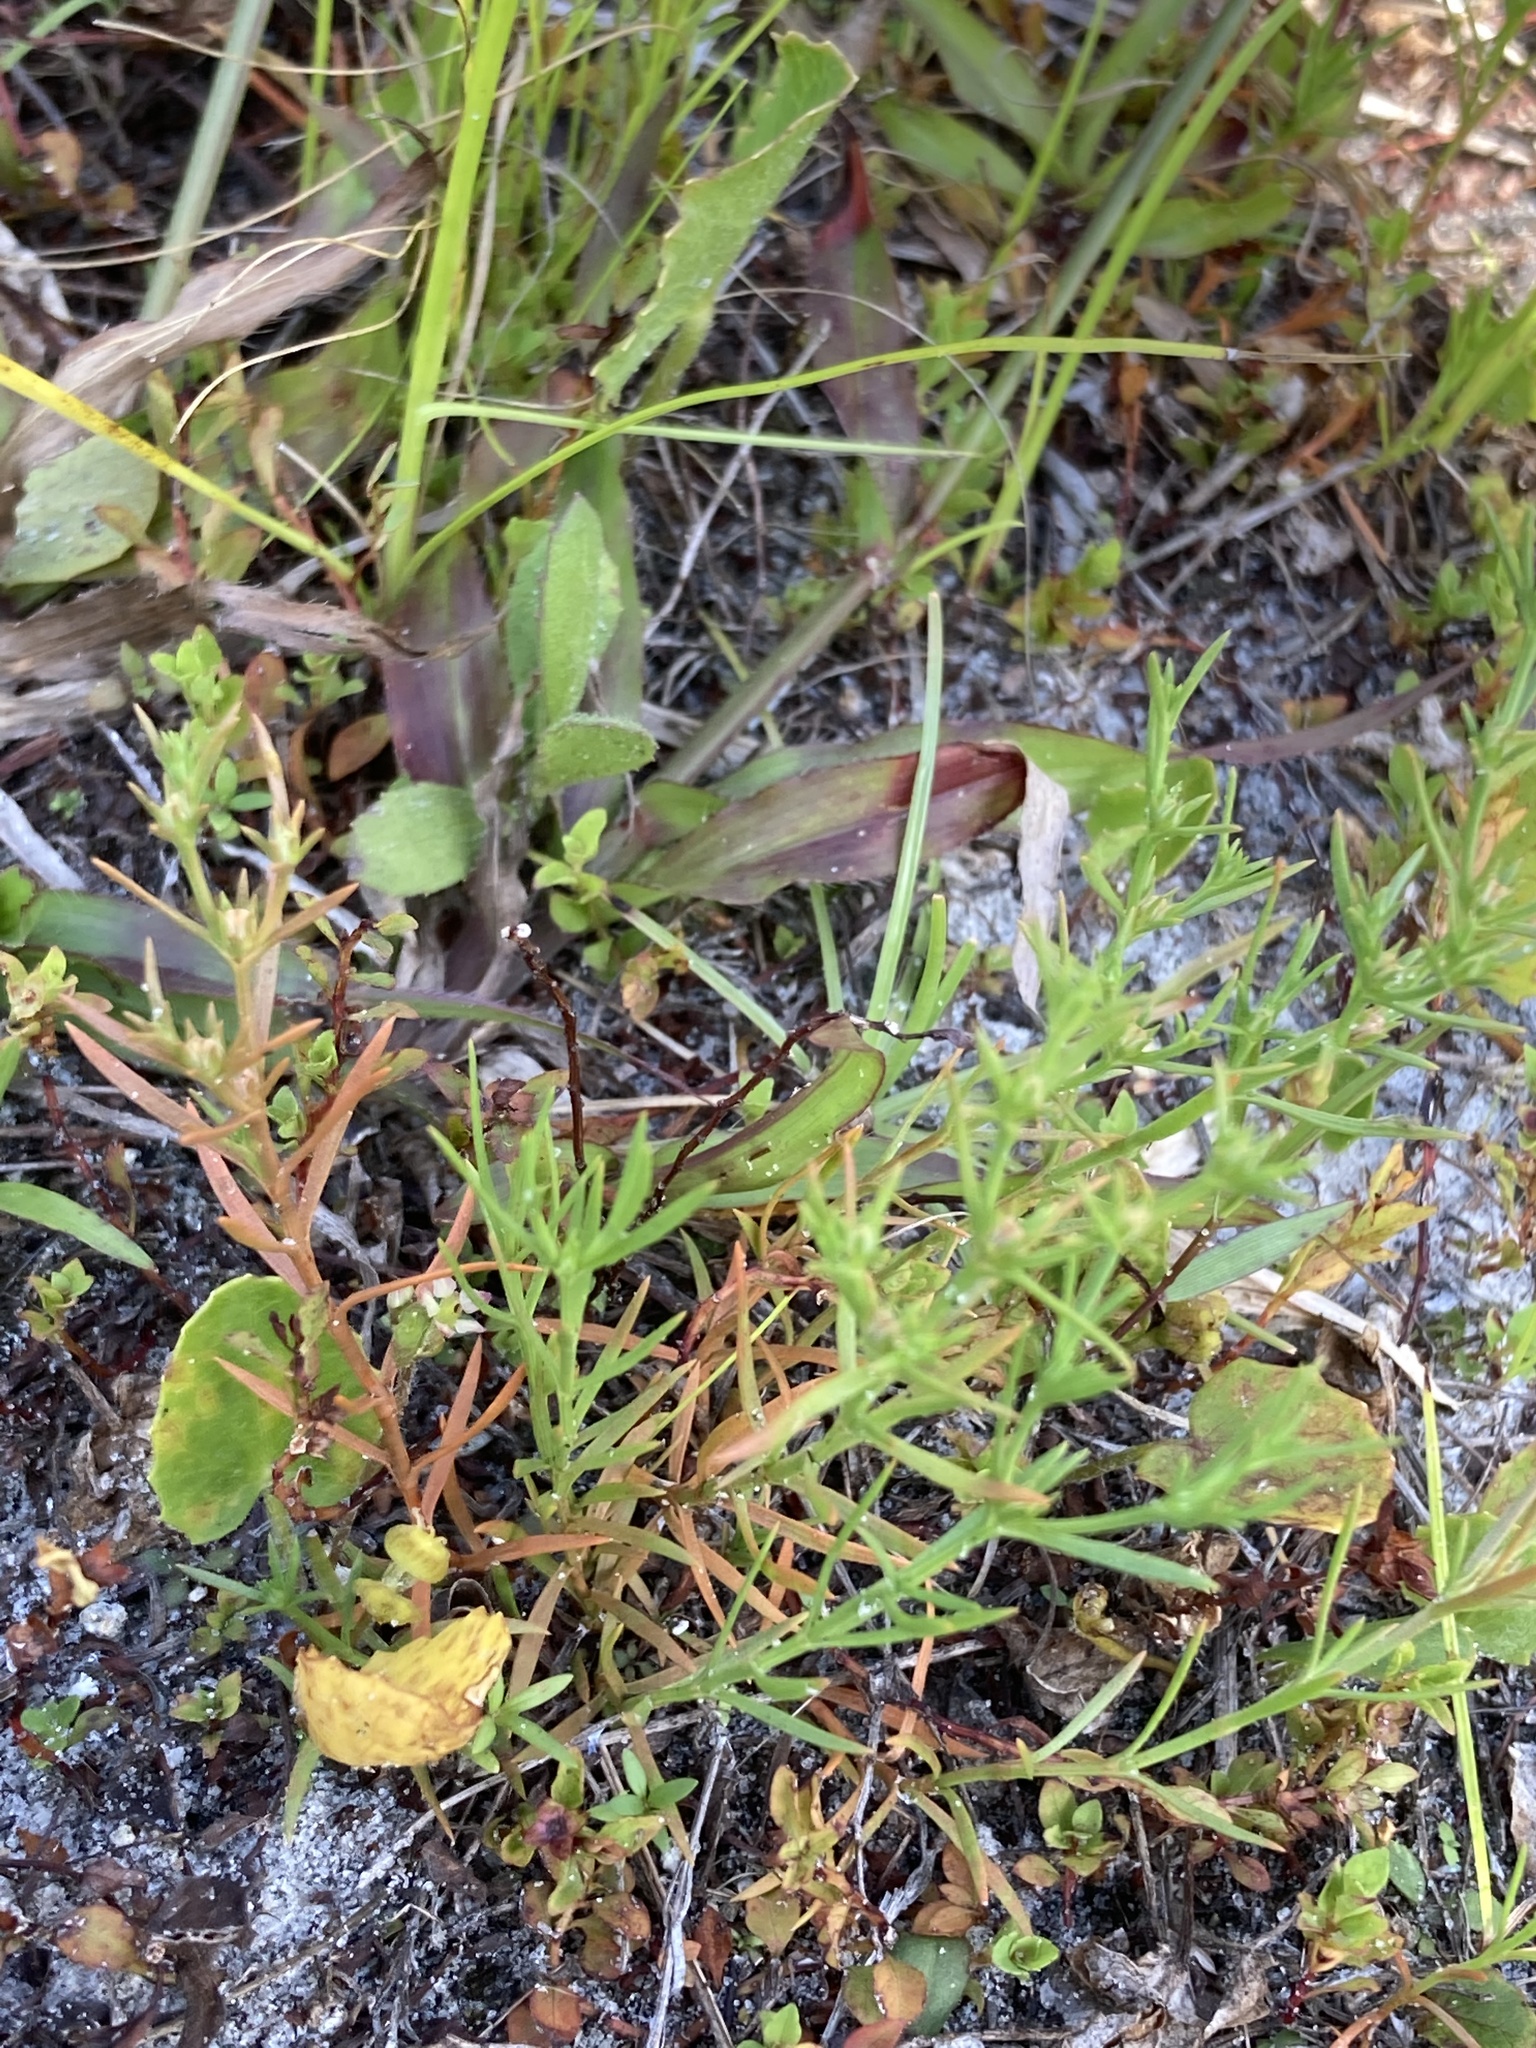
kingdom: Plantae
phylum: Tracheophyta
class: Magnoliopsida
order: Lamiales
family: Tetrachondraceae
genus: Polypremum
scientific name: Polypremum procumbens
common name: Juniper-leaf
